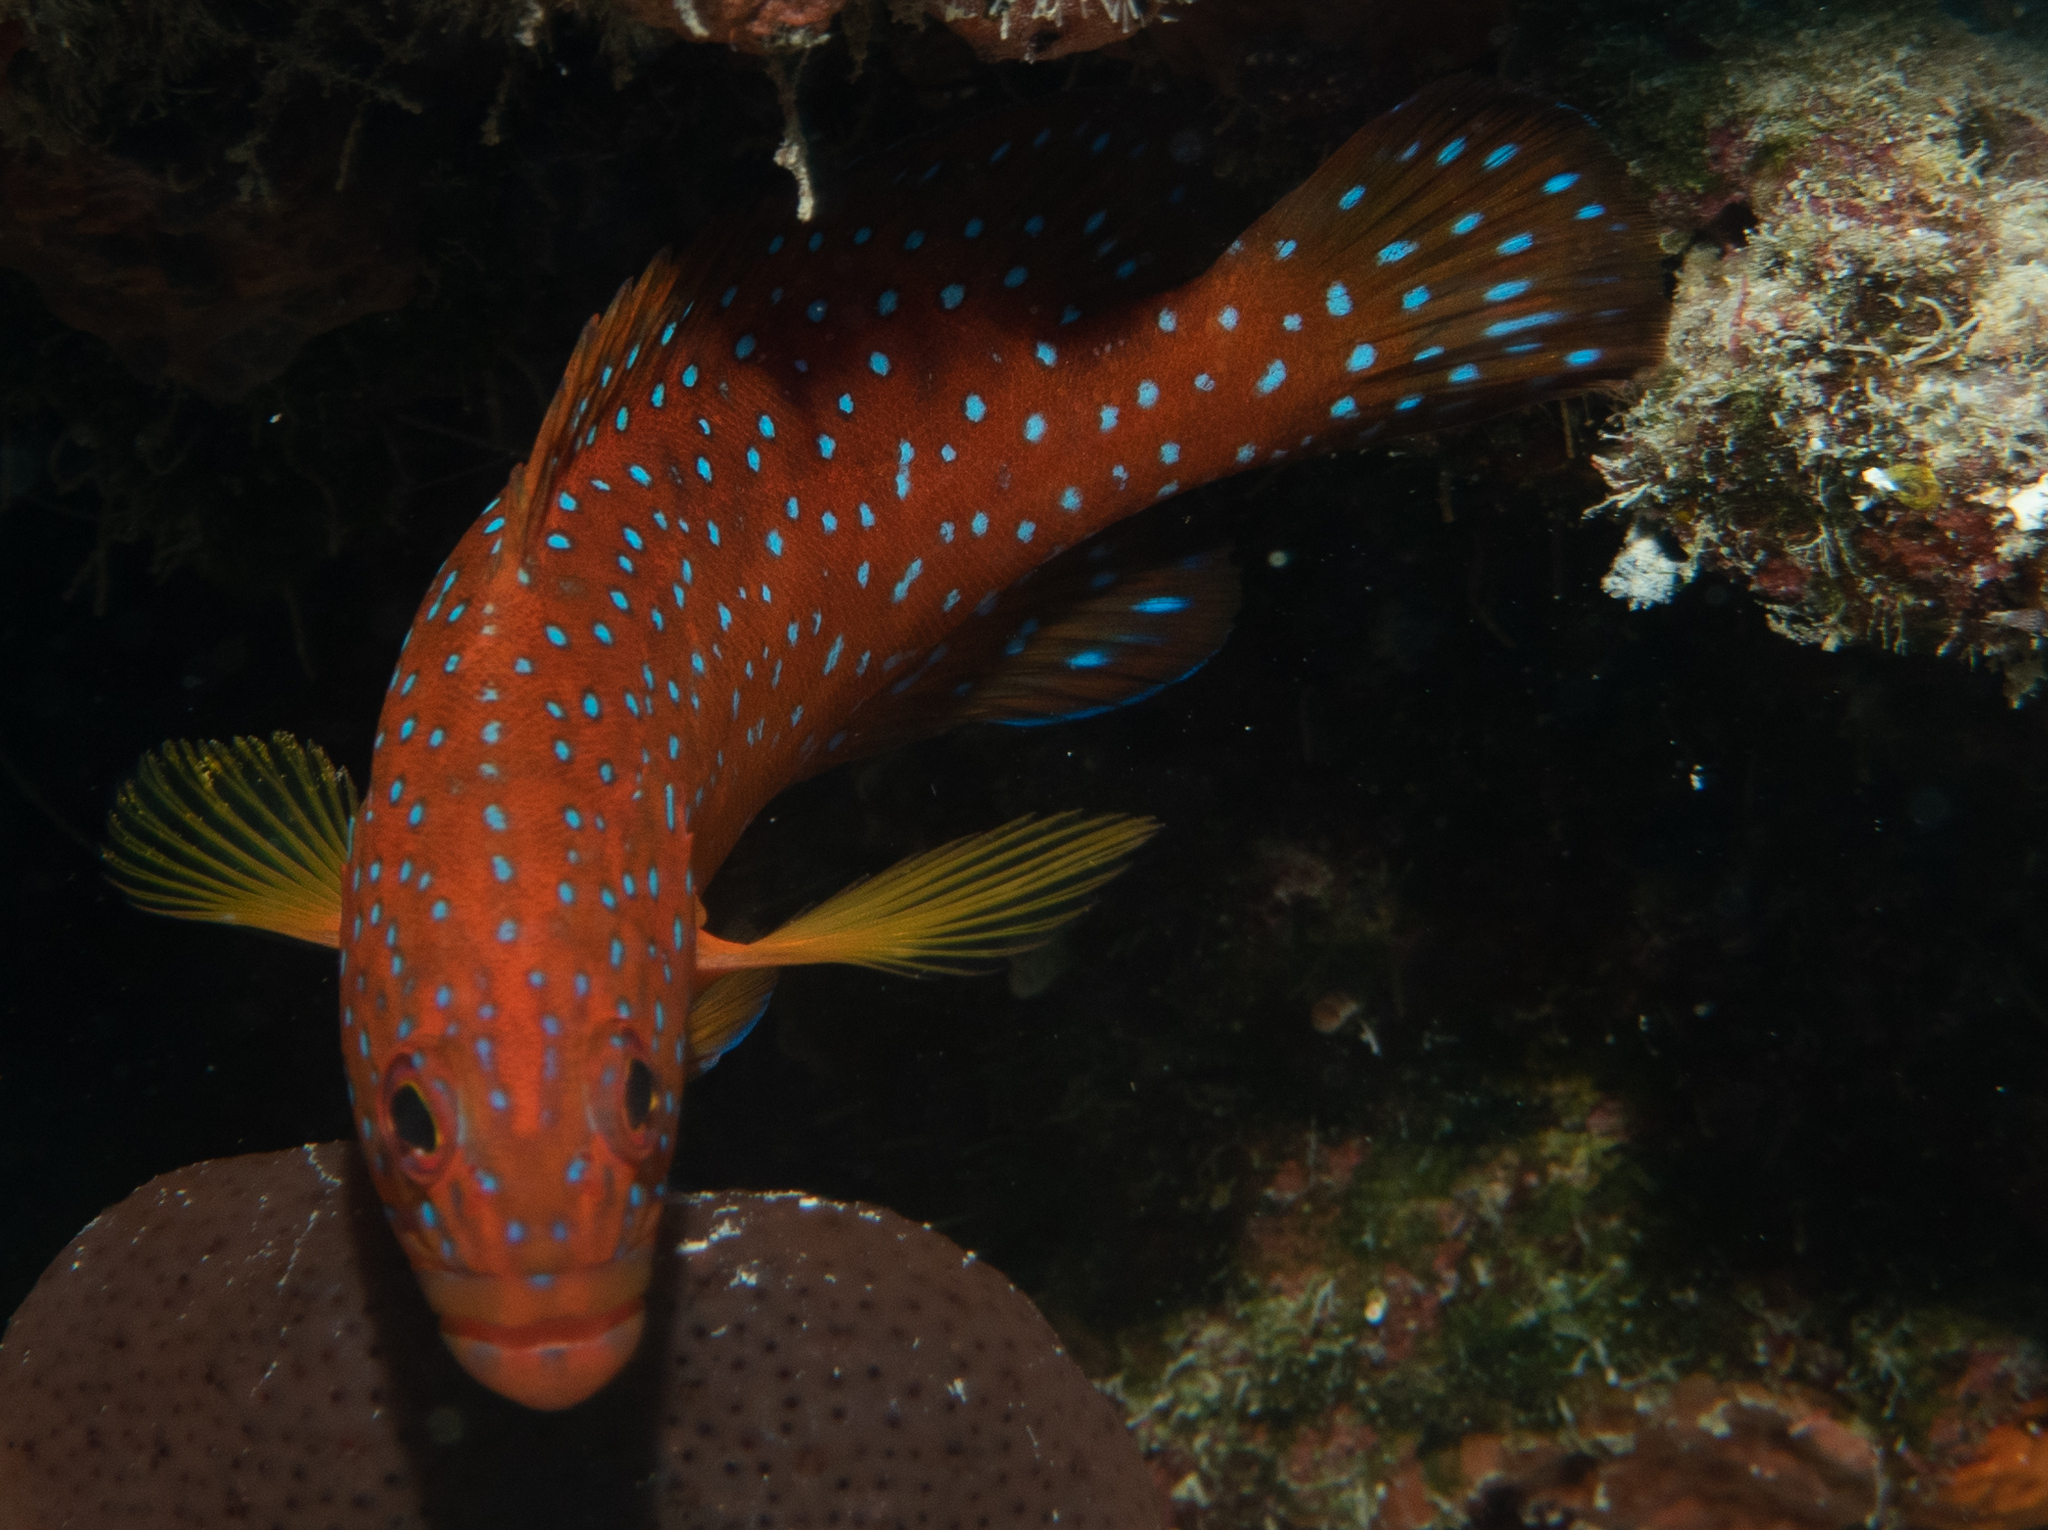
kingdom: Animalia
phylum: Chordata
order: Perciformes
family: Serranidae
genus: Cephalopholis
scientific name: Cephalopholis miniata
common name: Coral hind
